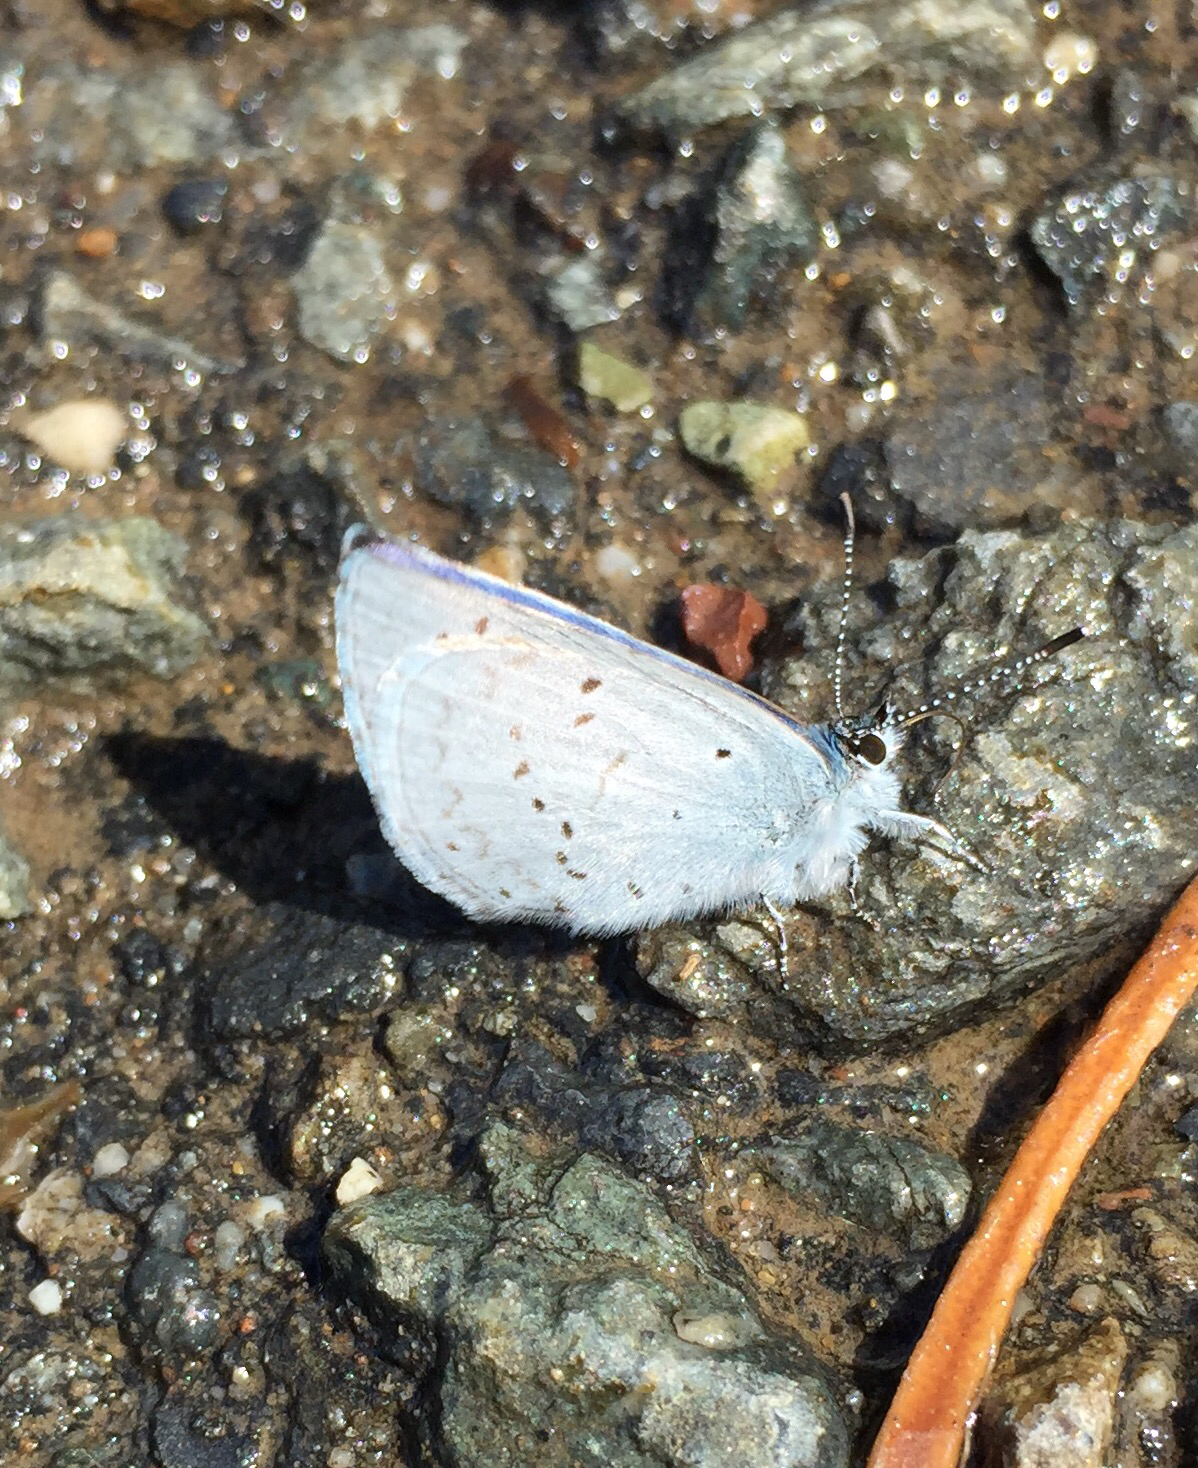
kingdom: Animalia
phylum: Arthropoda
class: Insecta
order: Lepidoptera
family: Lycaenidae
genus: Celastrina
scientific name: Celastrina ladon
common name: Spring azure
